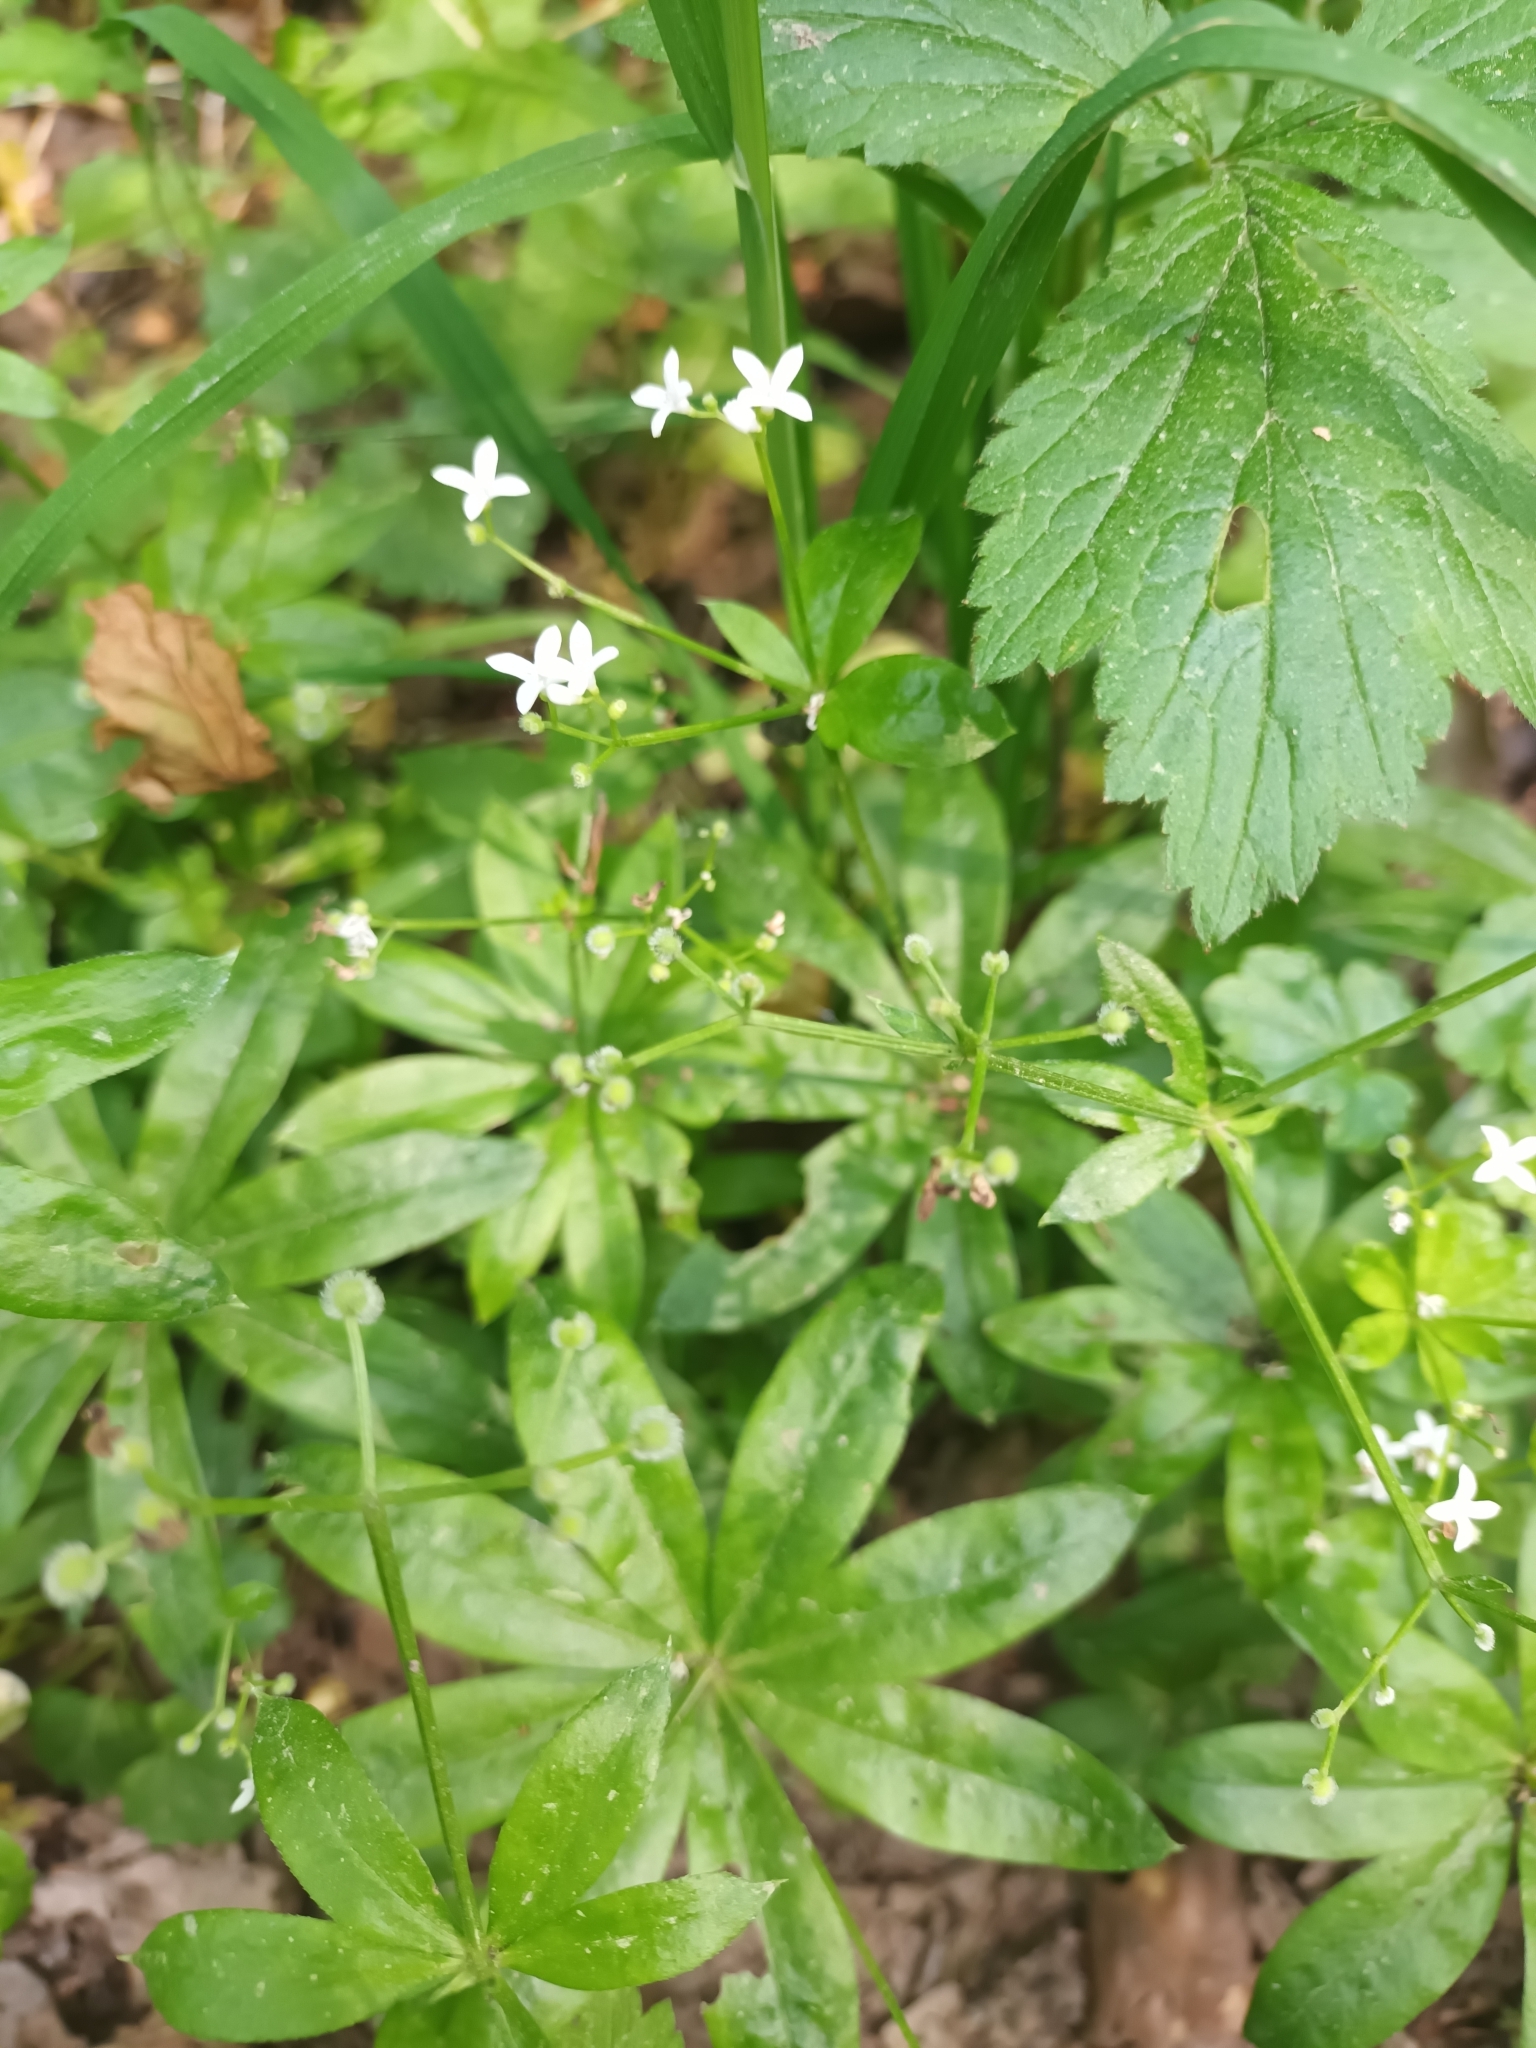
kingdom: Plantae
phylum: Tracheophyta
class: Magnoliopsida
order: Gentianales
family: Rubiaceae
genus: Galium
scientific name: Galium odoratum
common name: Sweet woodruff
